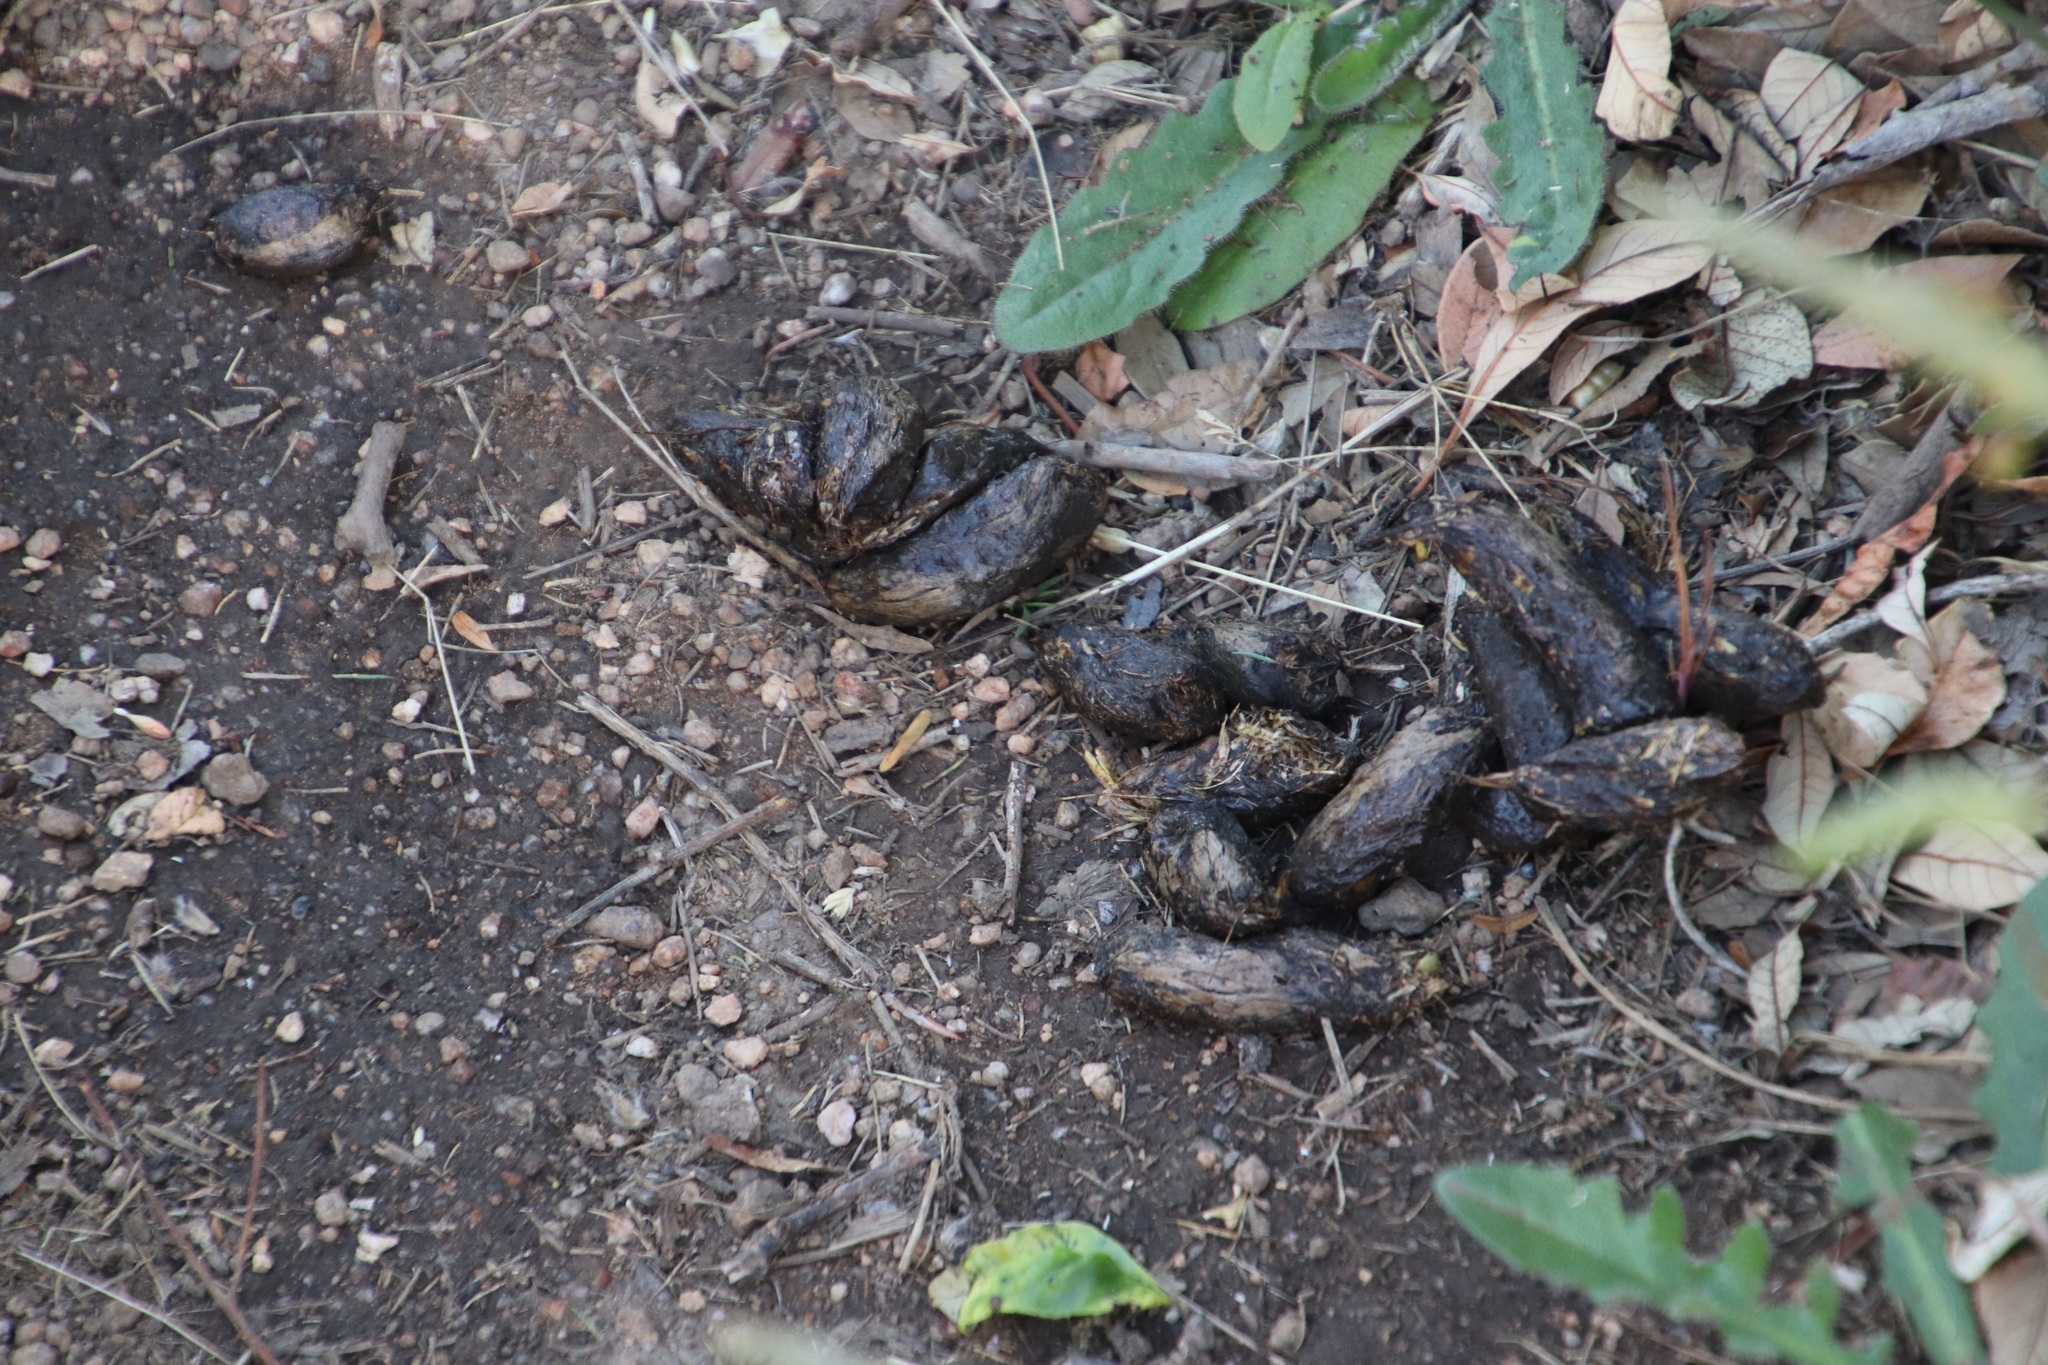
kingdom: Animalia
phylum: Chordata
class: Mammalia
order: Rodentia
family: Hystricidae
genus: Hystrix
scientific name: Hystrix africaeaustralis
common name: Cape porcupine
